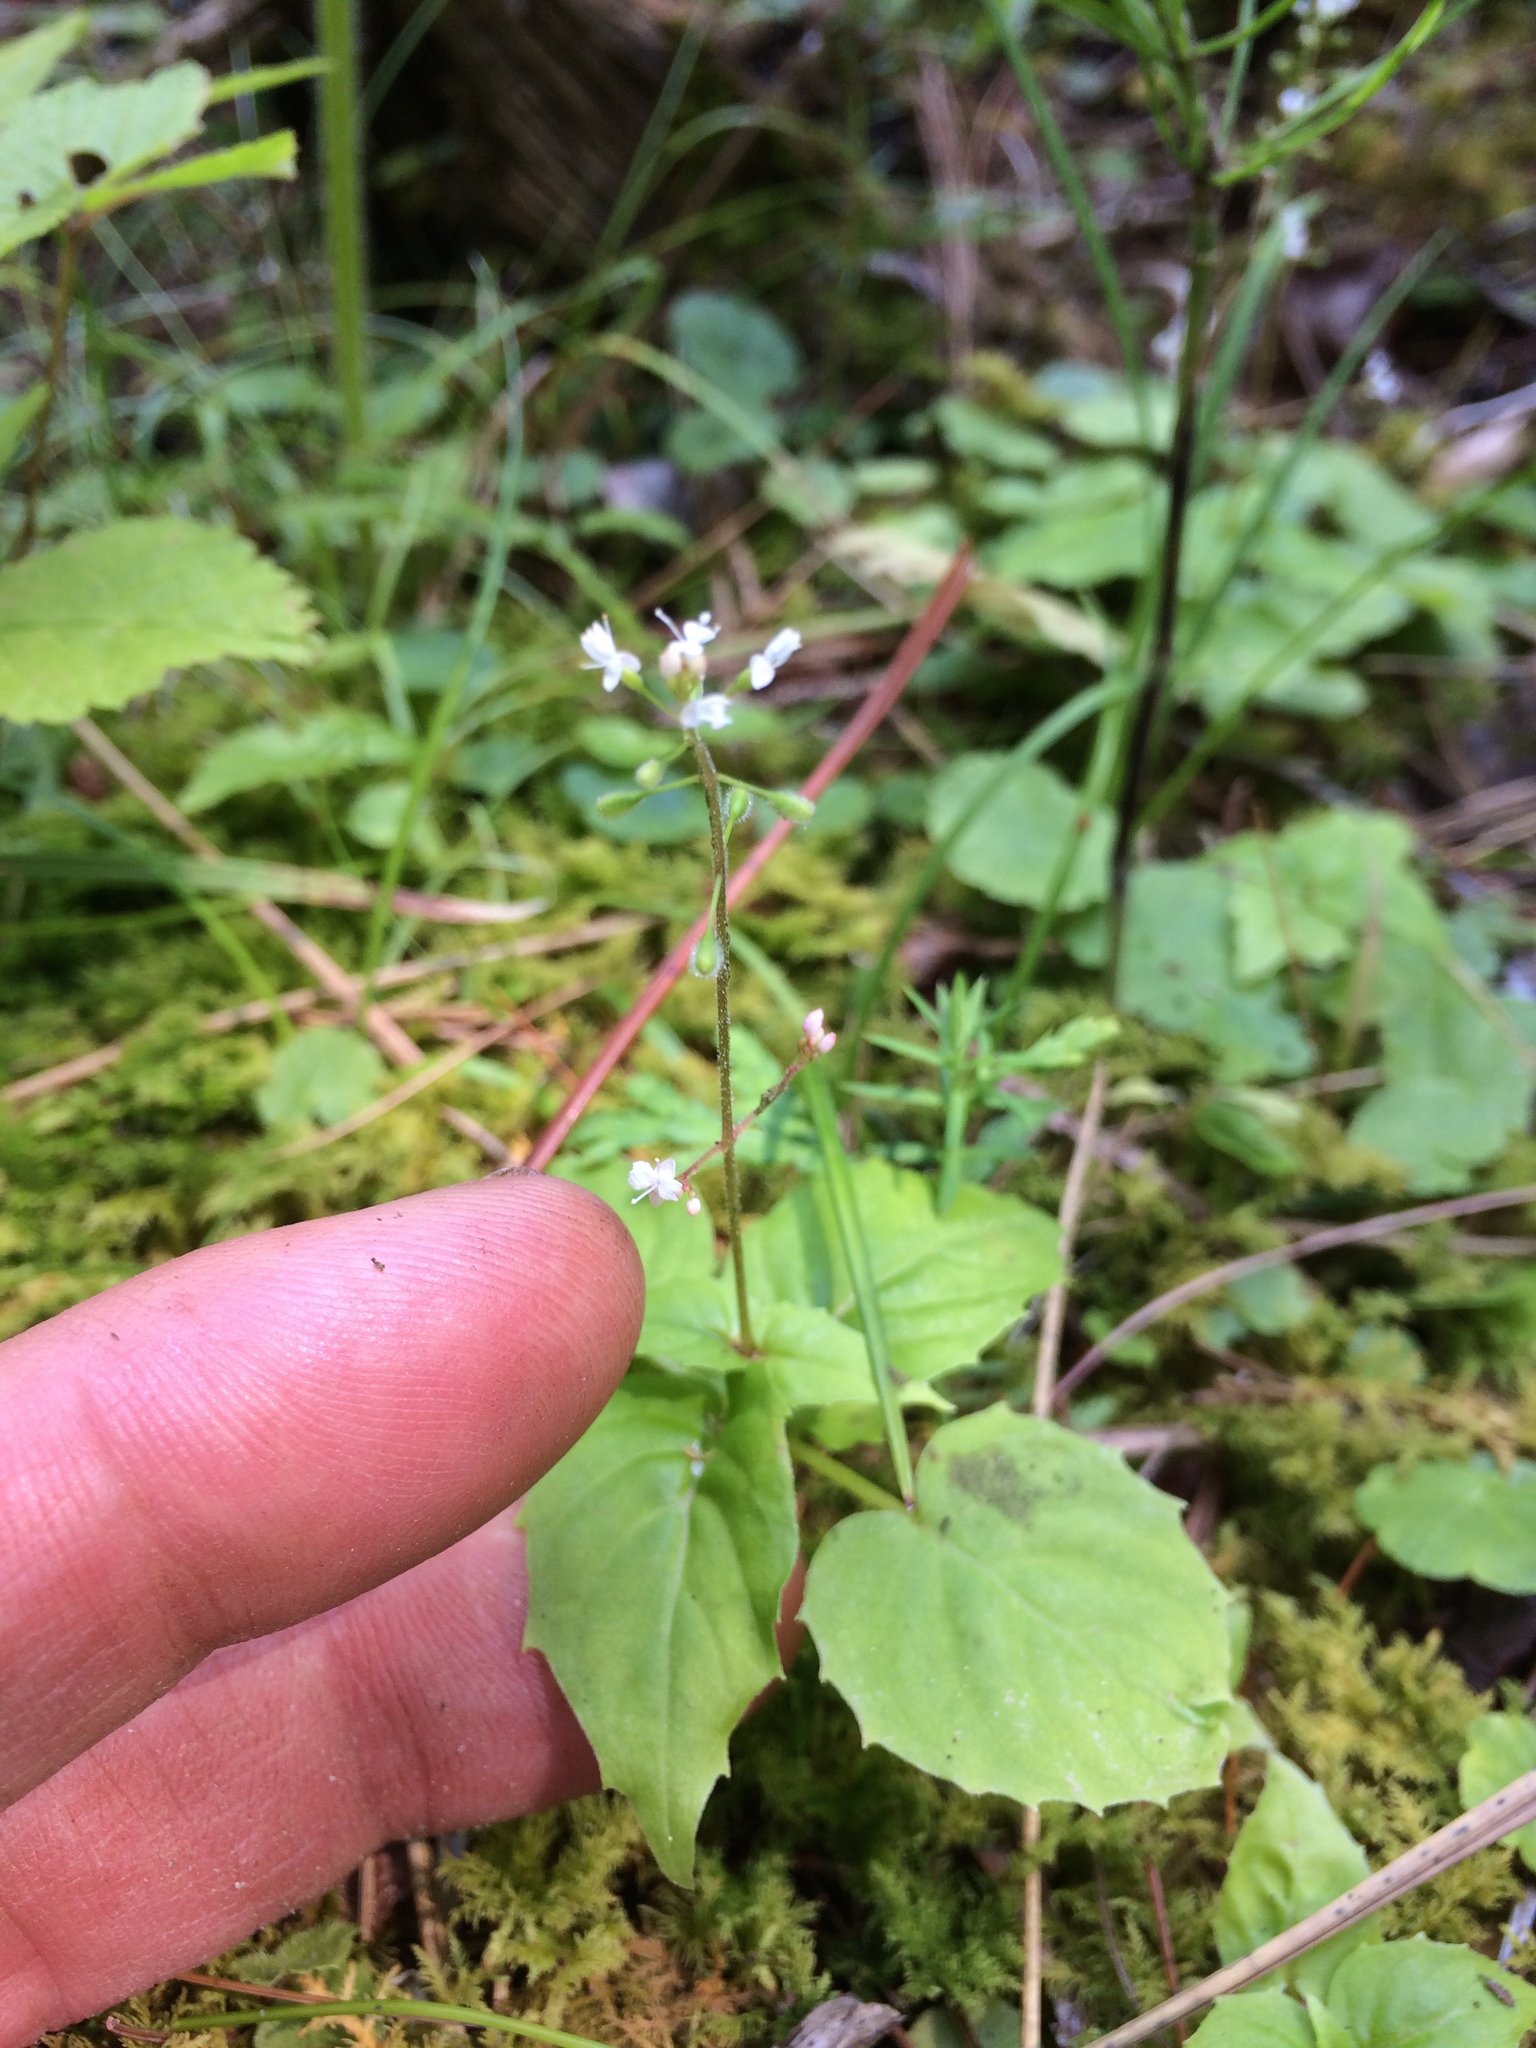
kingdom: Plantae
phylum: Tracheophyta
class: Magnoliopsida
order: Myrtales
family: Onagraceae
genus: Circaea
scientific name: Circaea alpina
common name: Alpine enchanter's-nightshade
